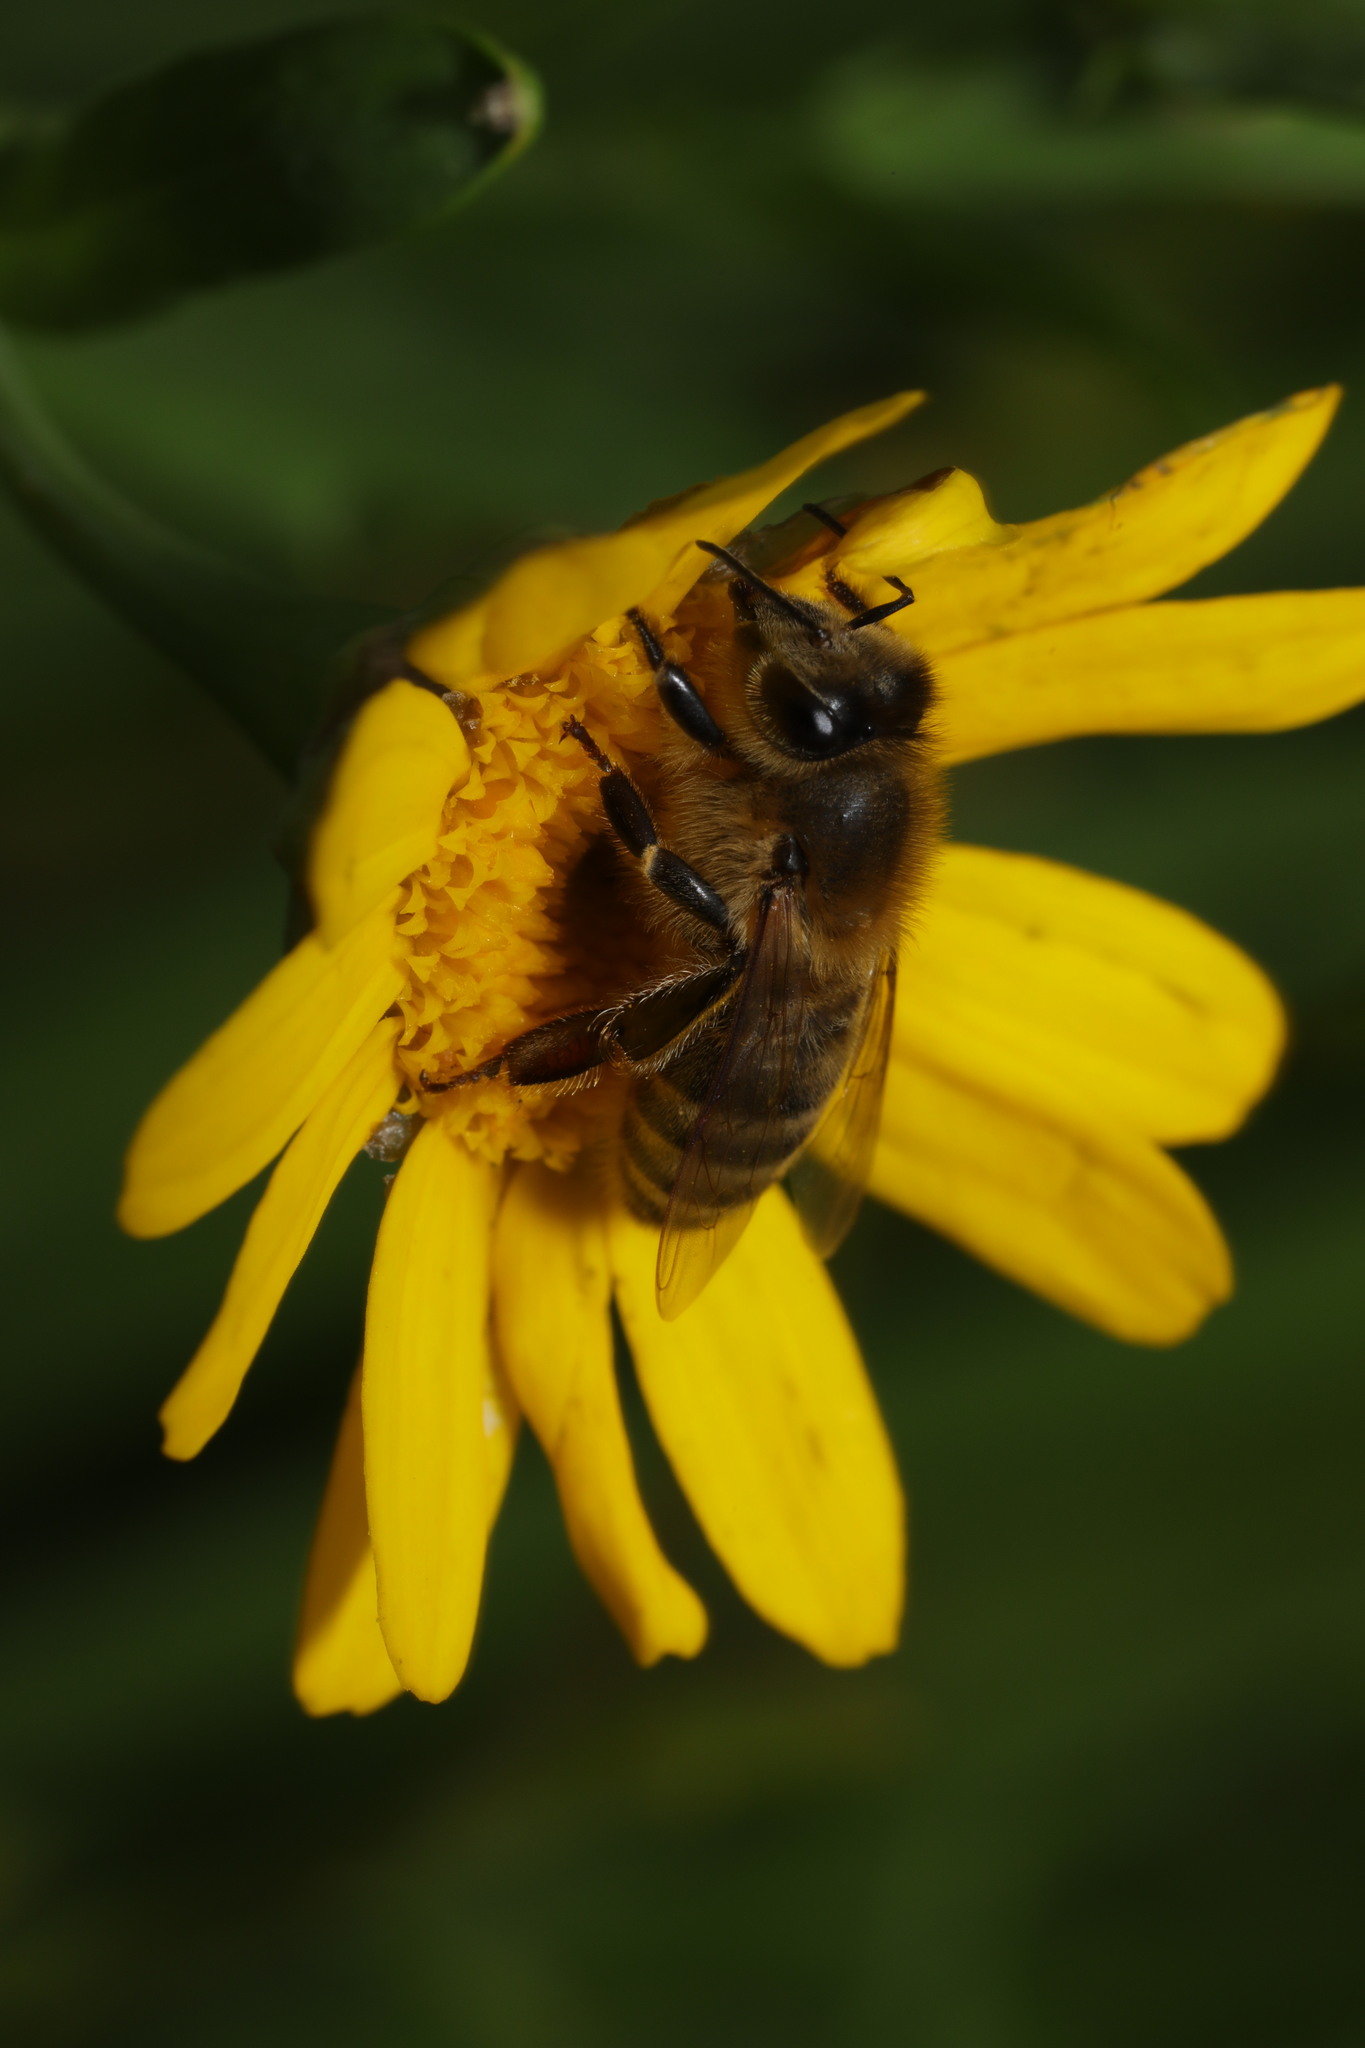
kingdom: Animalia
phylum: Arthropoda
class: Insecta
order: Hymenoptera
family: Apidae
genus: Apis
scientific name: Apis mellifera
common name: Honey bee
